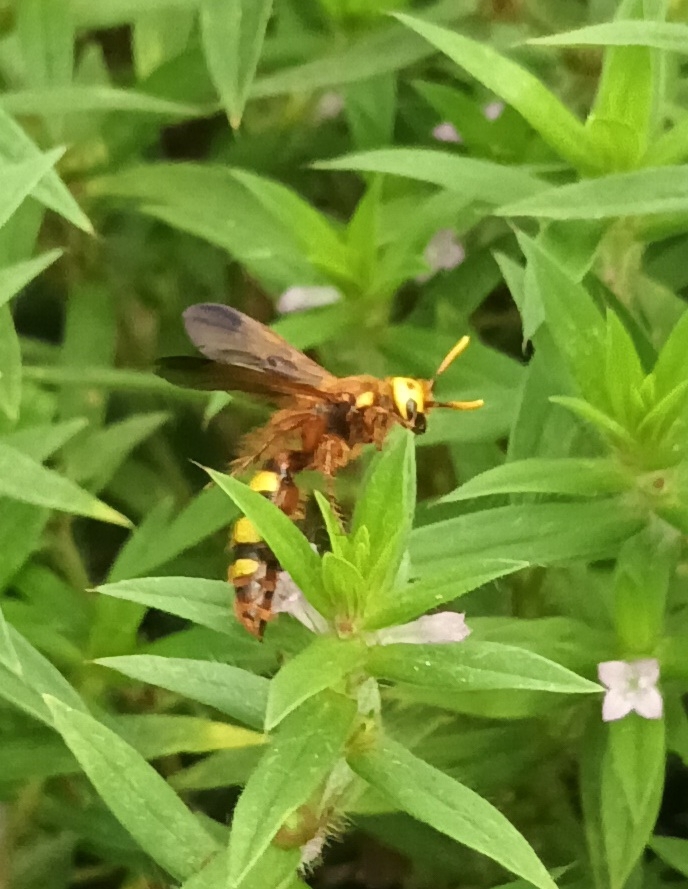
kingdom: Animalia
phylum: Arthropoda
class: Insecta
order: Hymenoptera
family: Scoliidae
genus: Carinoscolia
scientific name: Carinoscolia Scolia picteti
